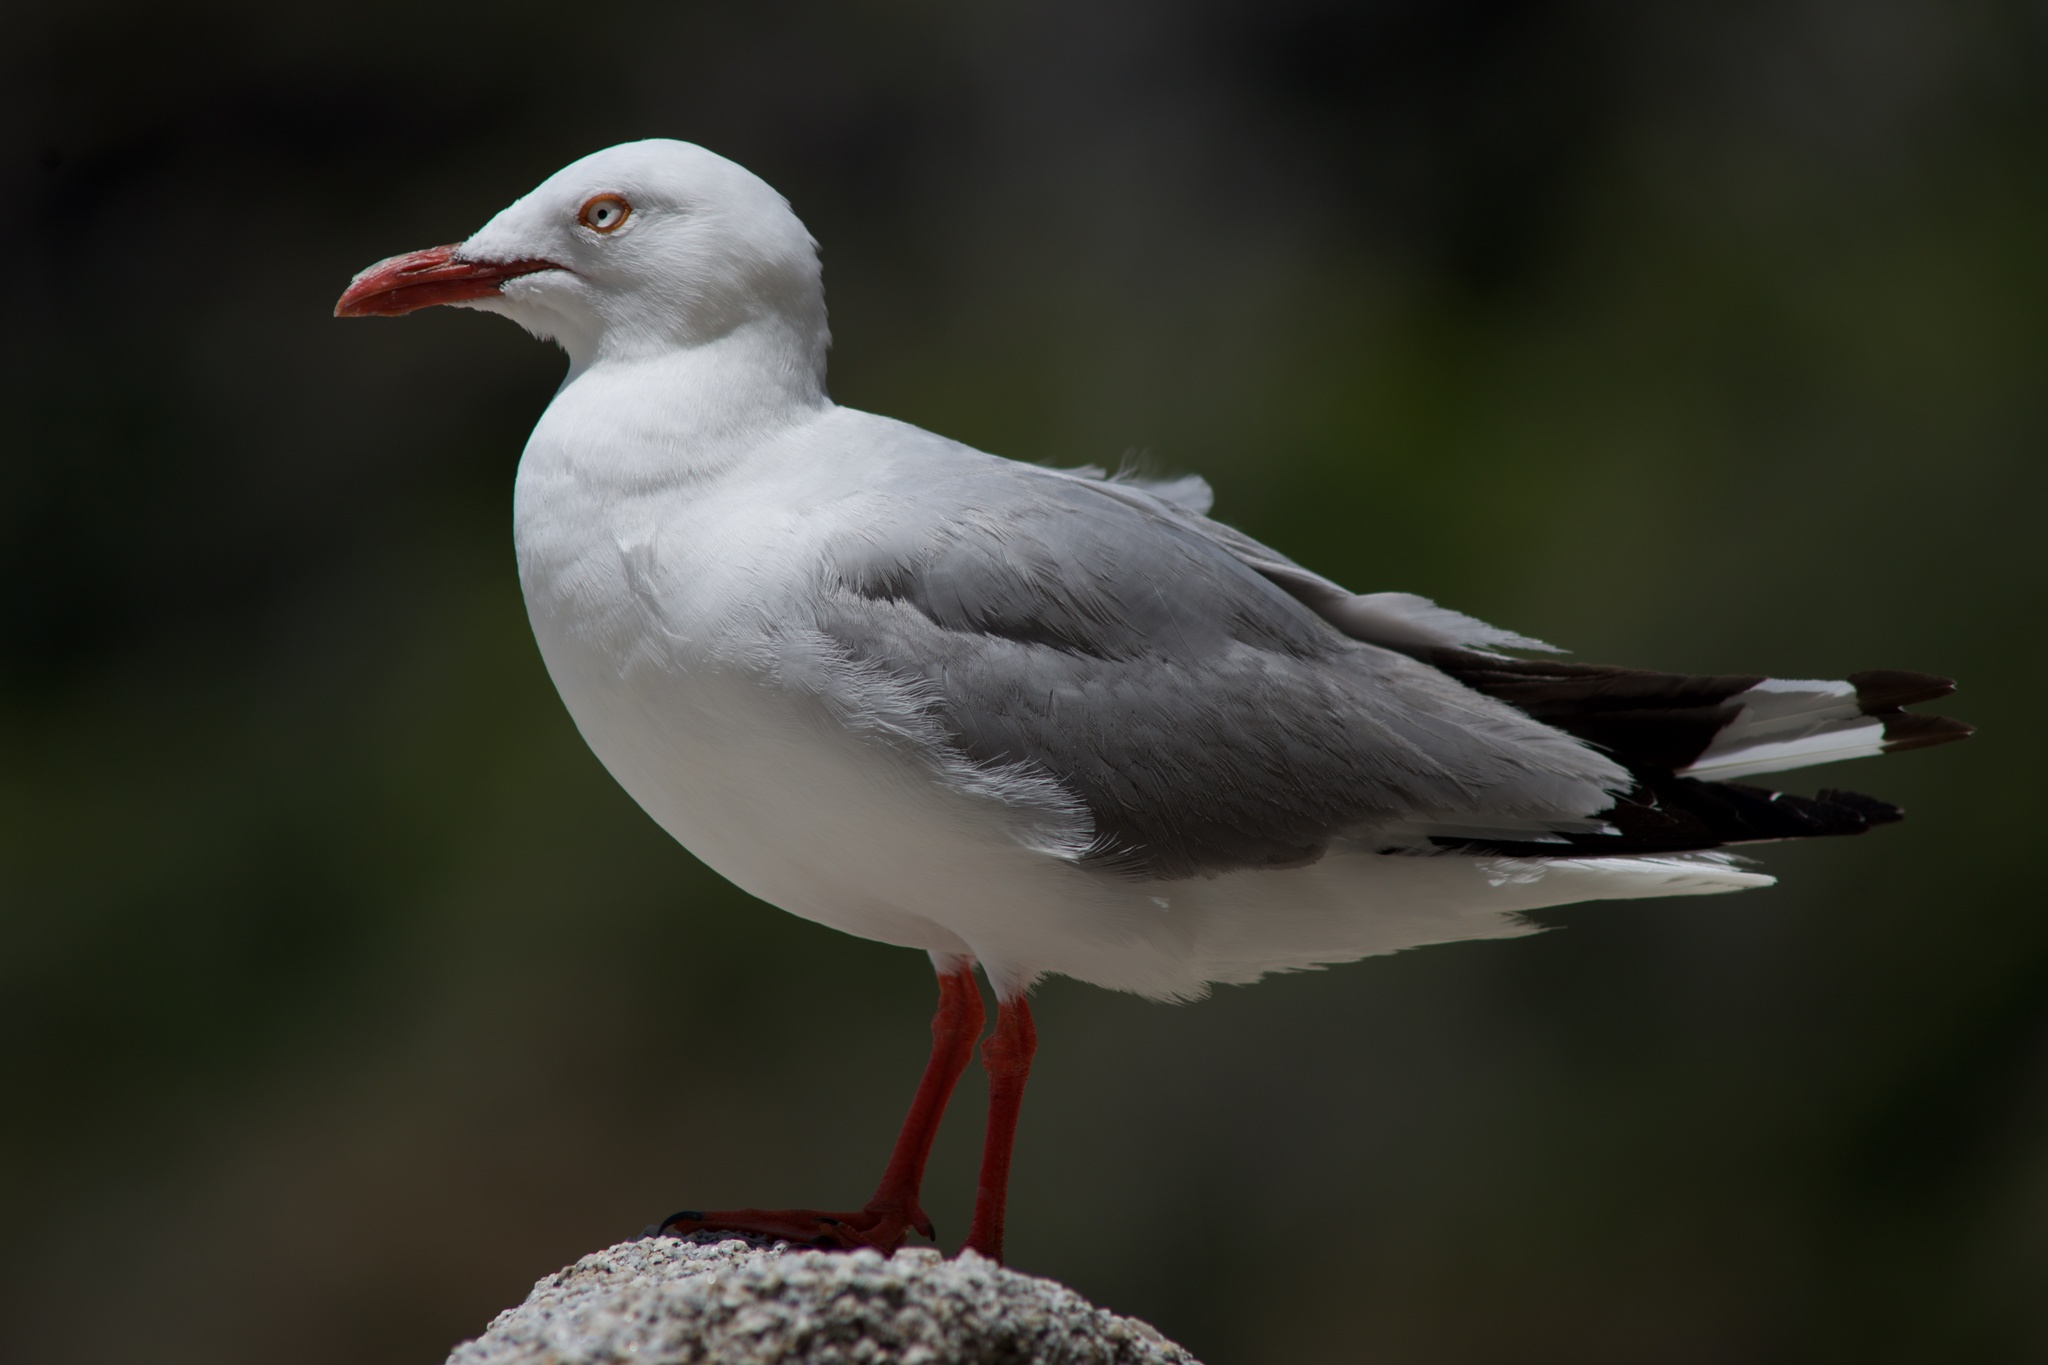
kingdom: Animalia
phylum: Chordata
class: Aves
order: Charadriiformes
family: Laridae
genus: Chroicocephalus
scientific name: Chroicocephalus novaehollandiae
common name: Silver gull
